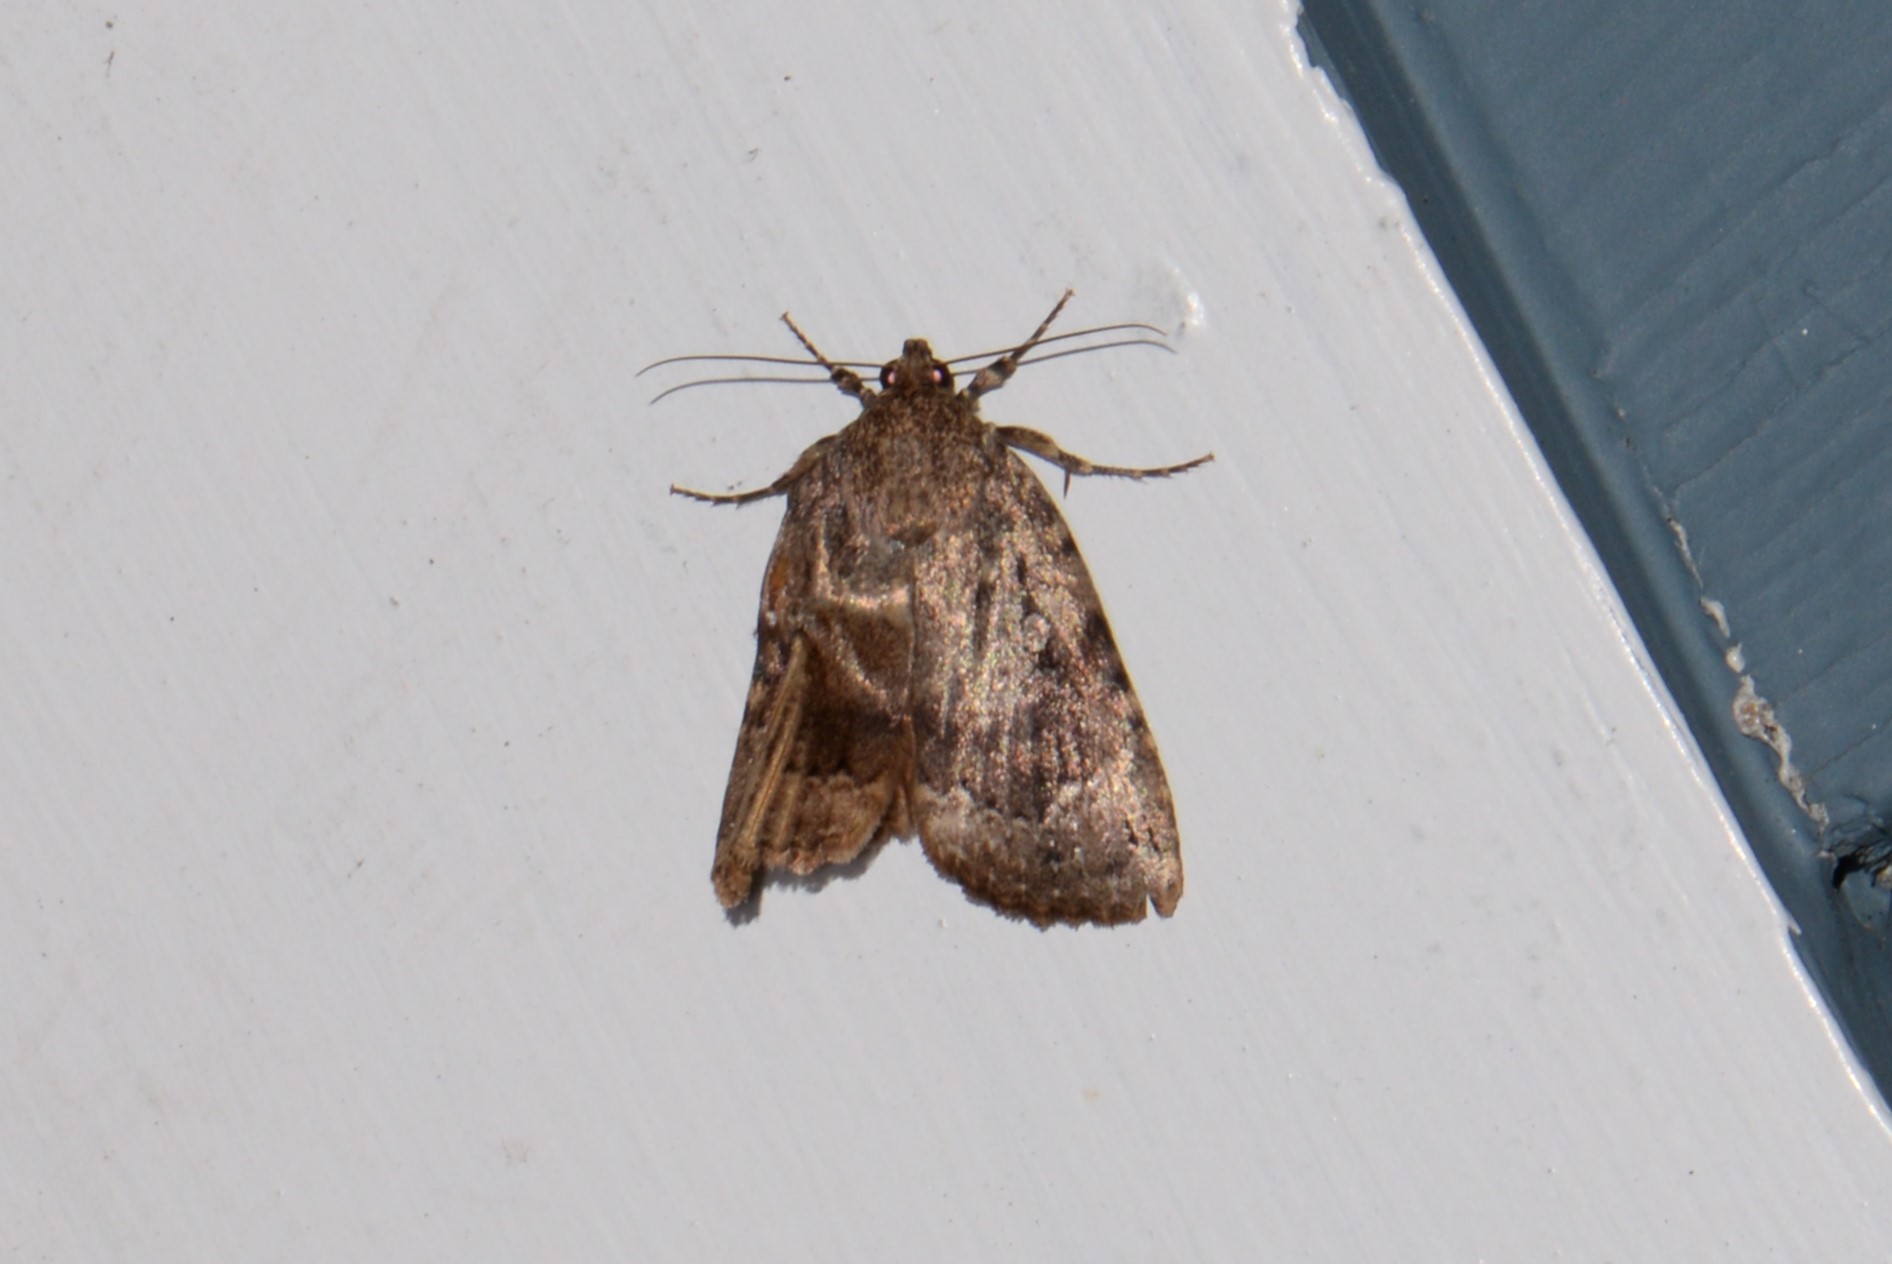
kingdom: Animalia
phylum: Arthropoda
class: Insecta
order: Lepidoptera
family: Noctuidae
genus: Amphipyra
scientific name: Amphipyra pyramidoides
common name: American copper underwing
